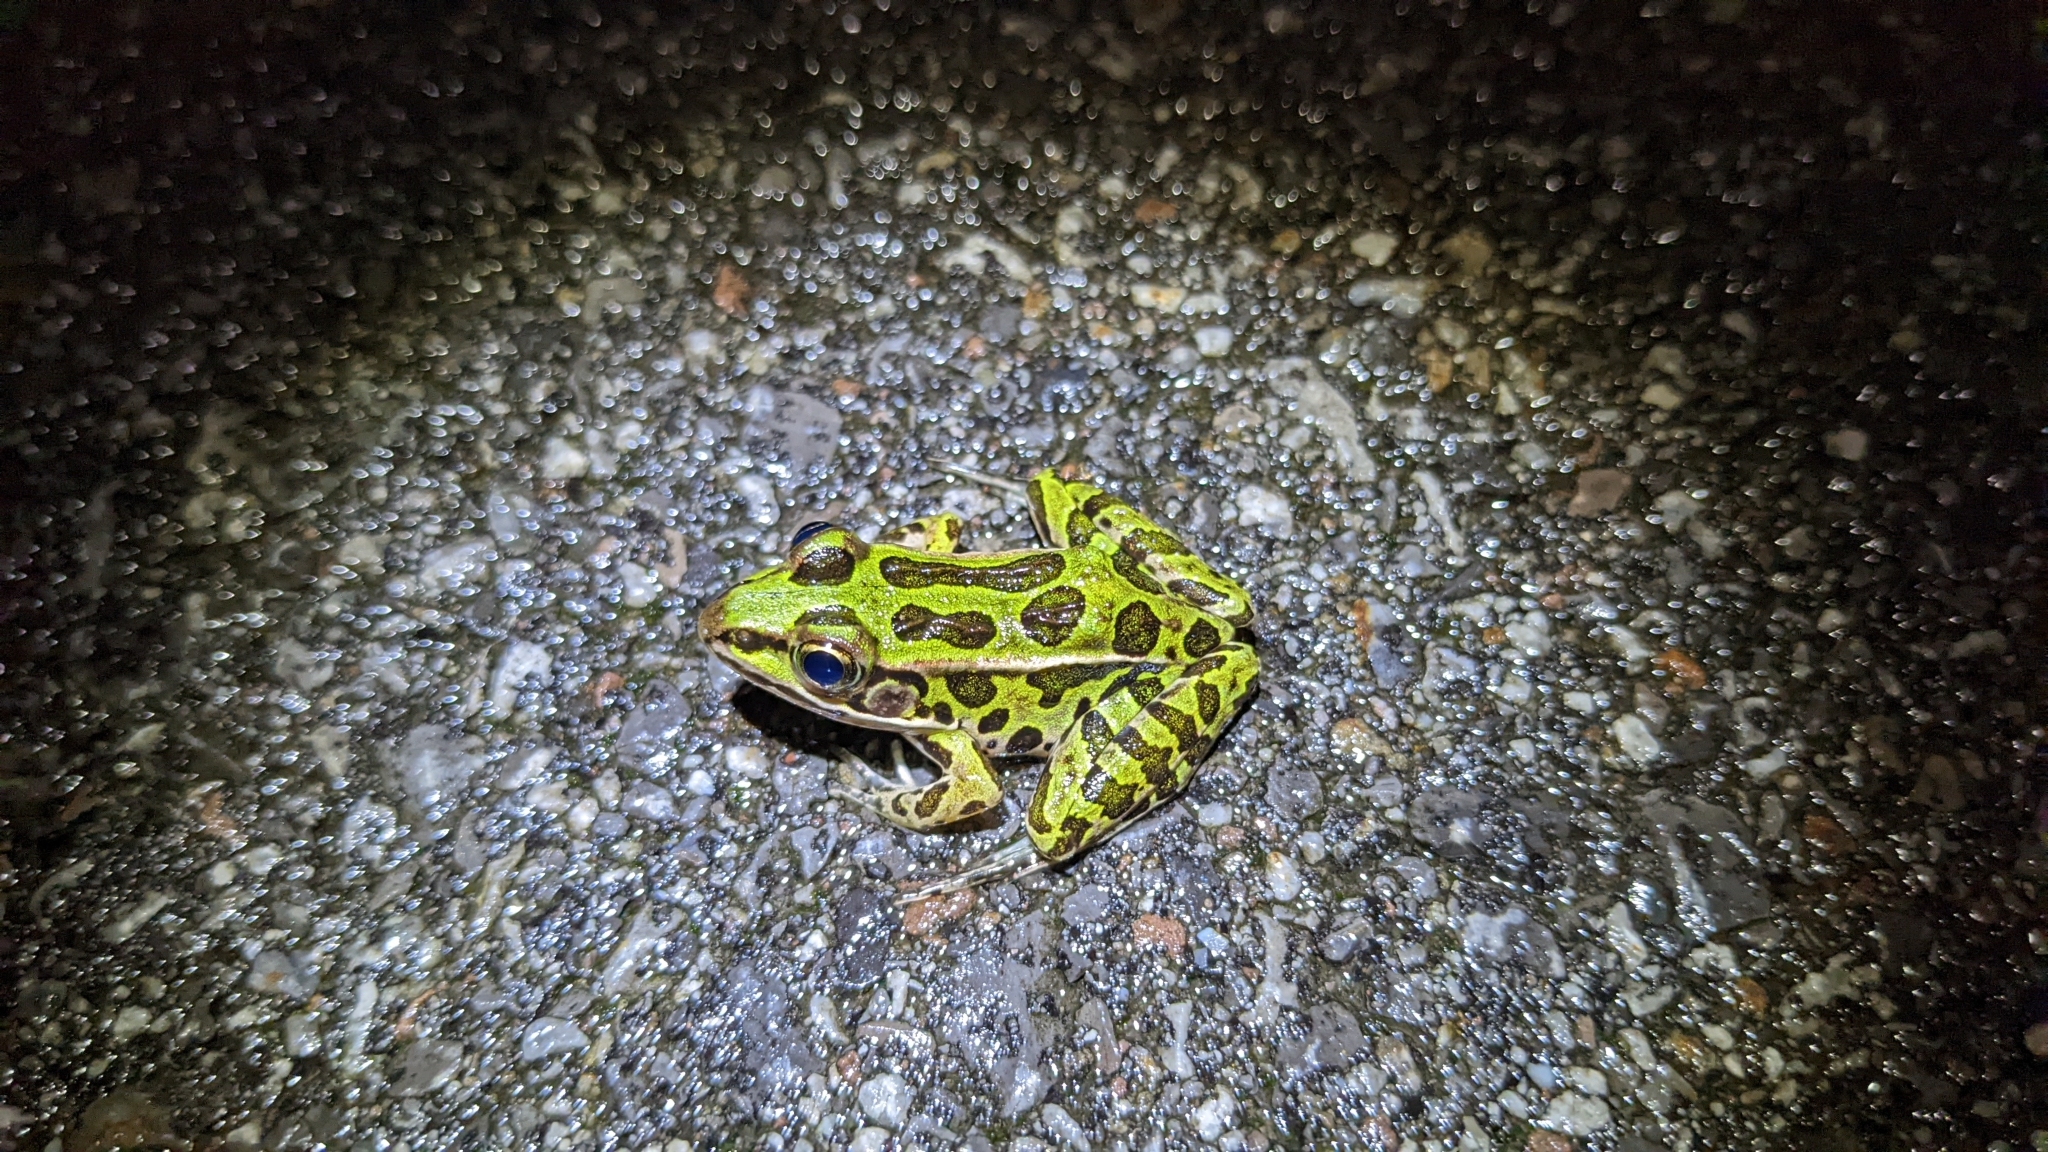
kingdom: Animalia
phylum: Chordata
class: Amphibia
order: Anura
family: Ranidae
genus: Lithobates
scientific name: Lithobates pipiens
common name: Northern leopard frog
